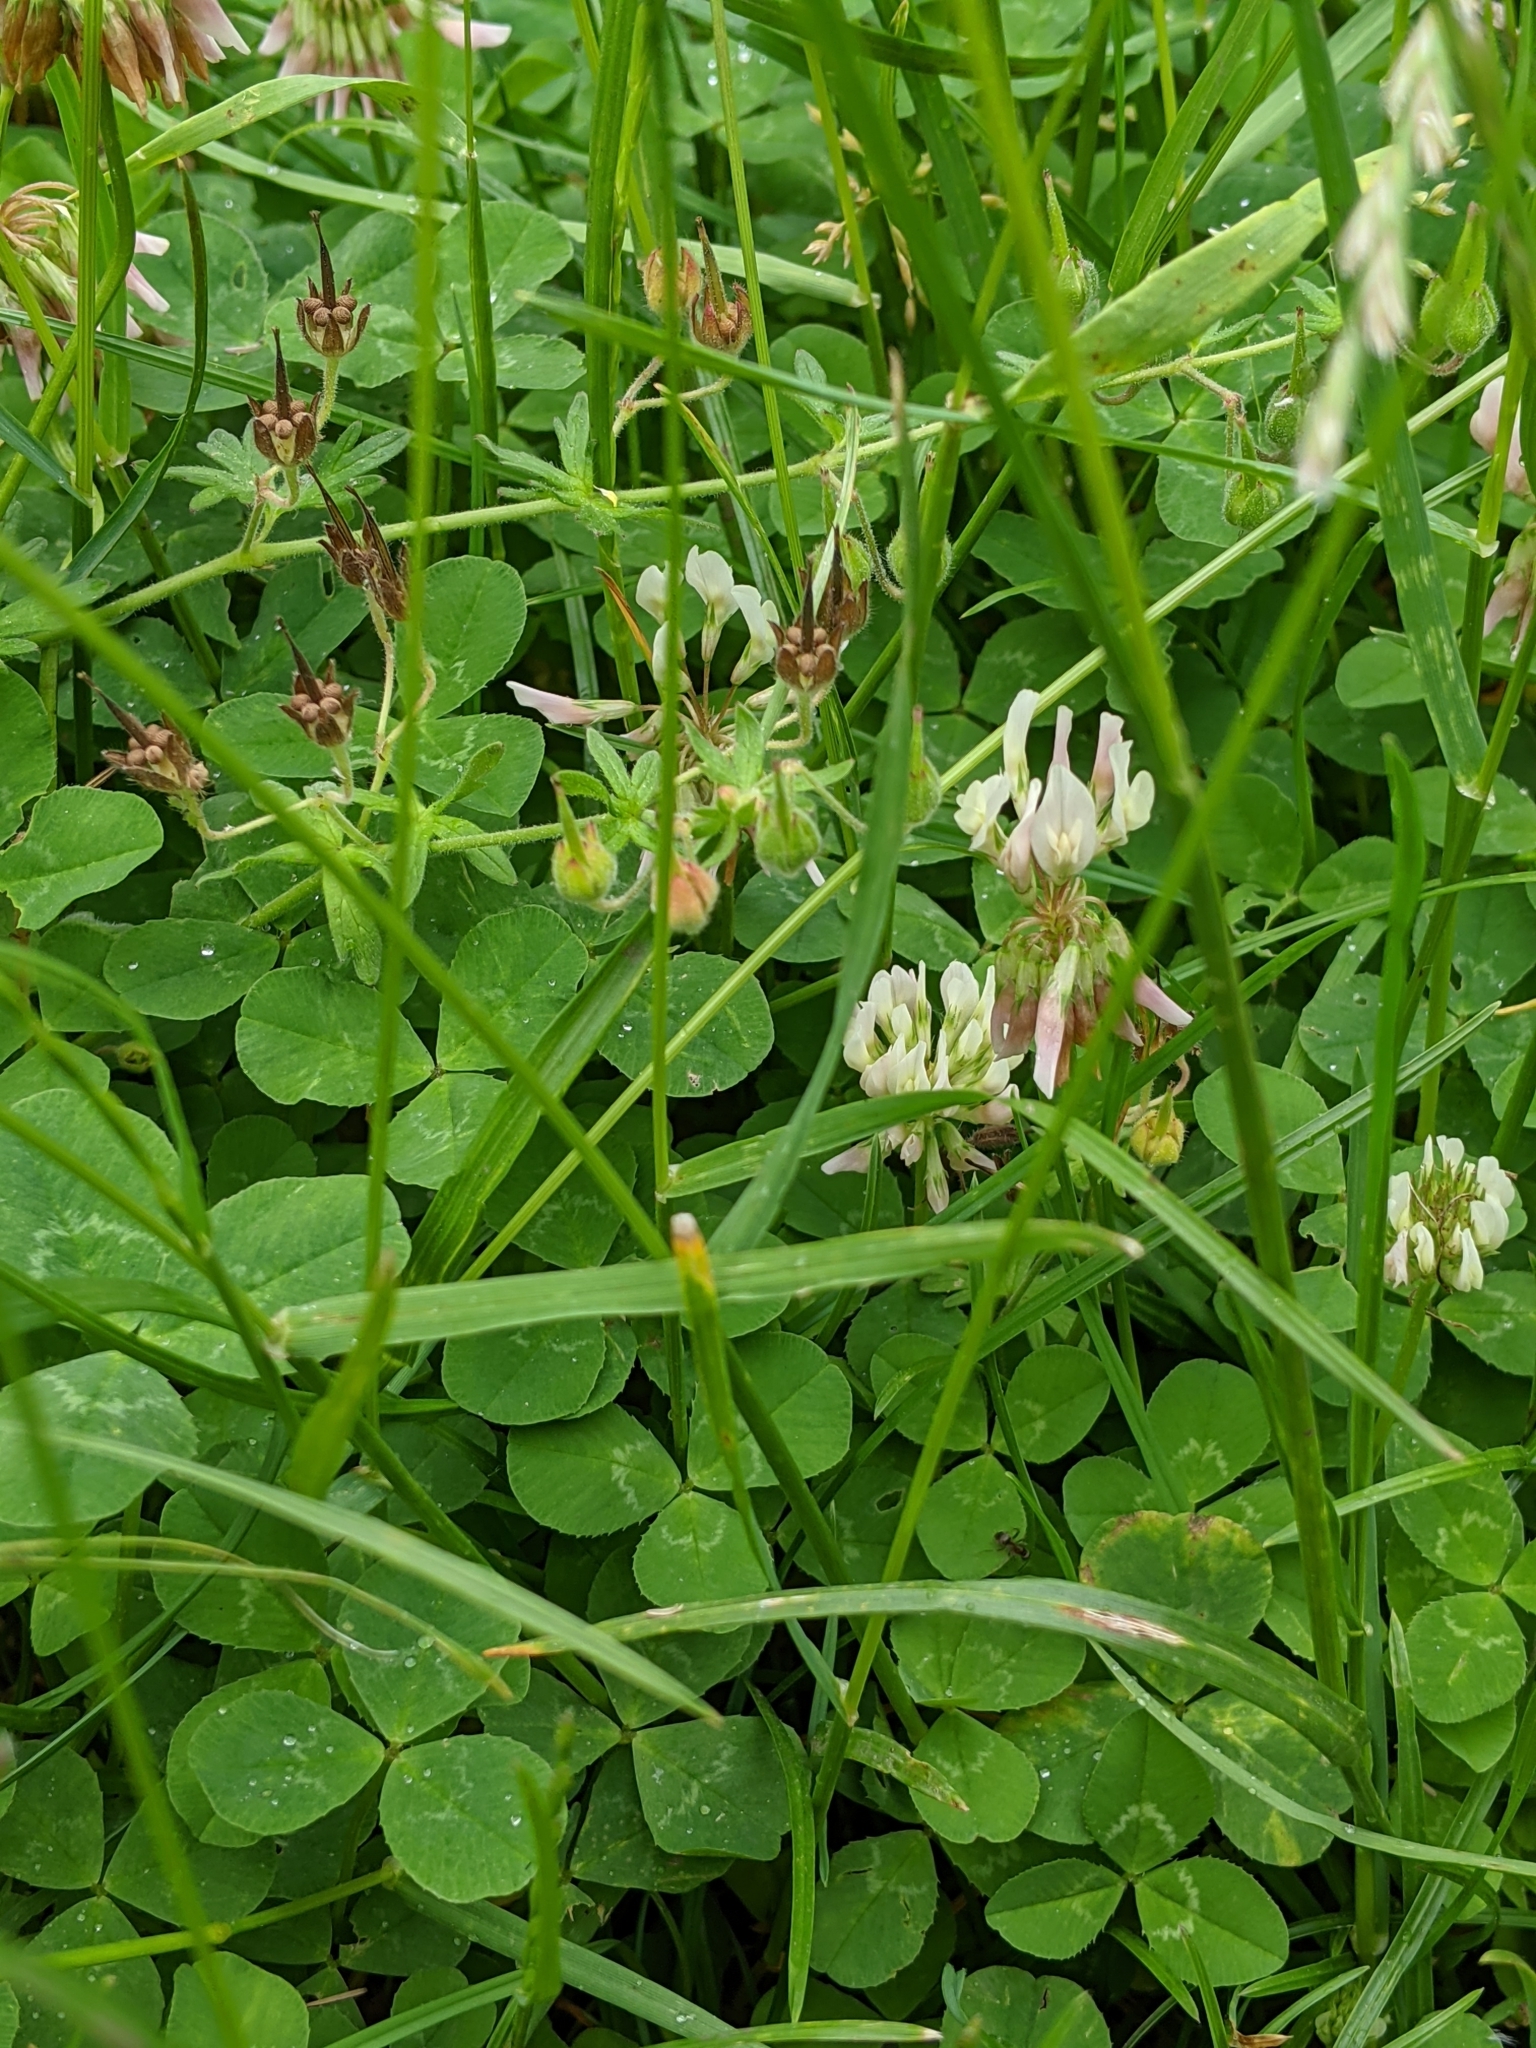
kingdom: Plantae
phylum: Tracheophyta
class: Magnoliopsida
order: Fabales
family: Fabaceae
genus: Trifolium
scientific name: Trifolium repens
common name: White clover
